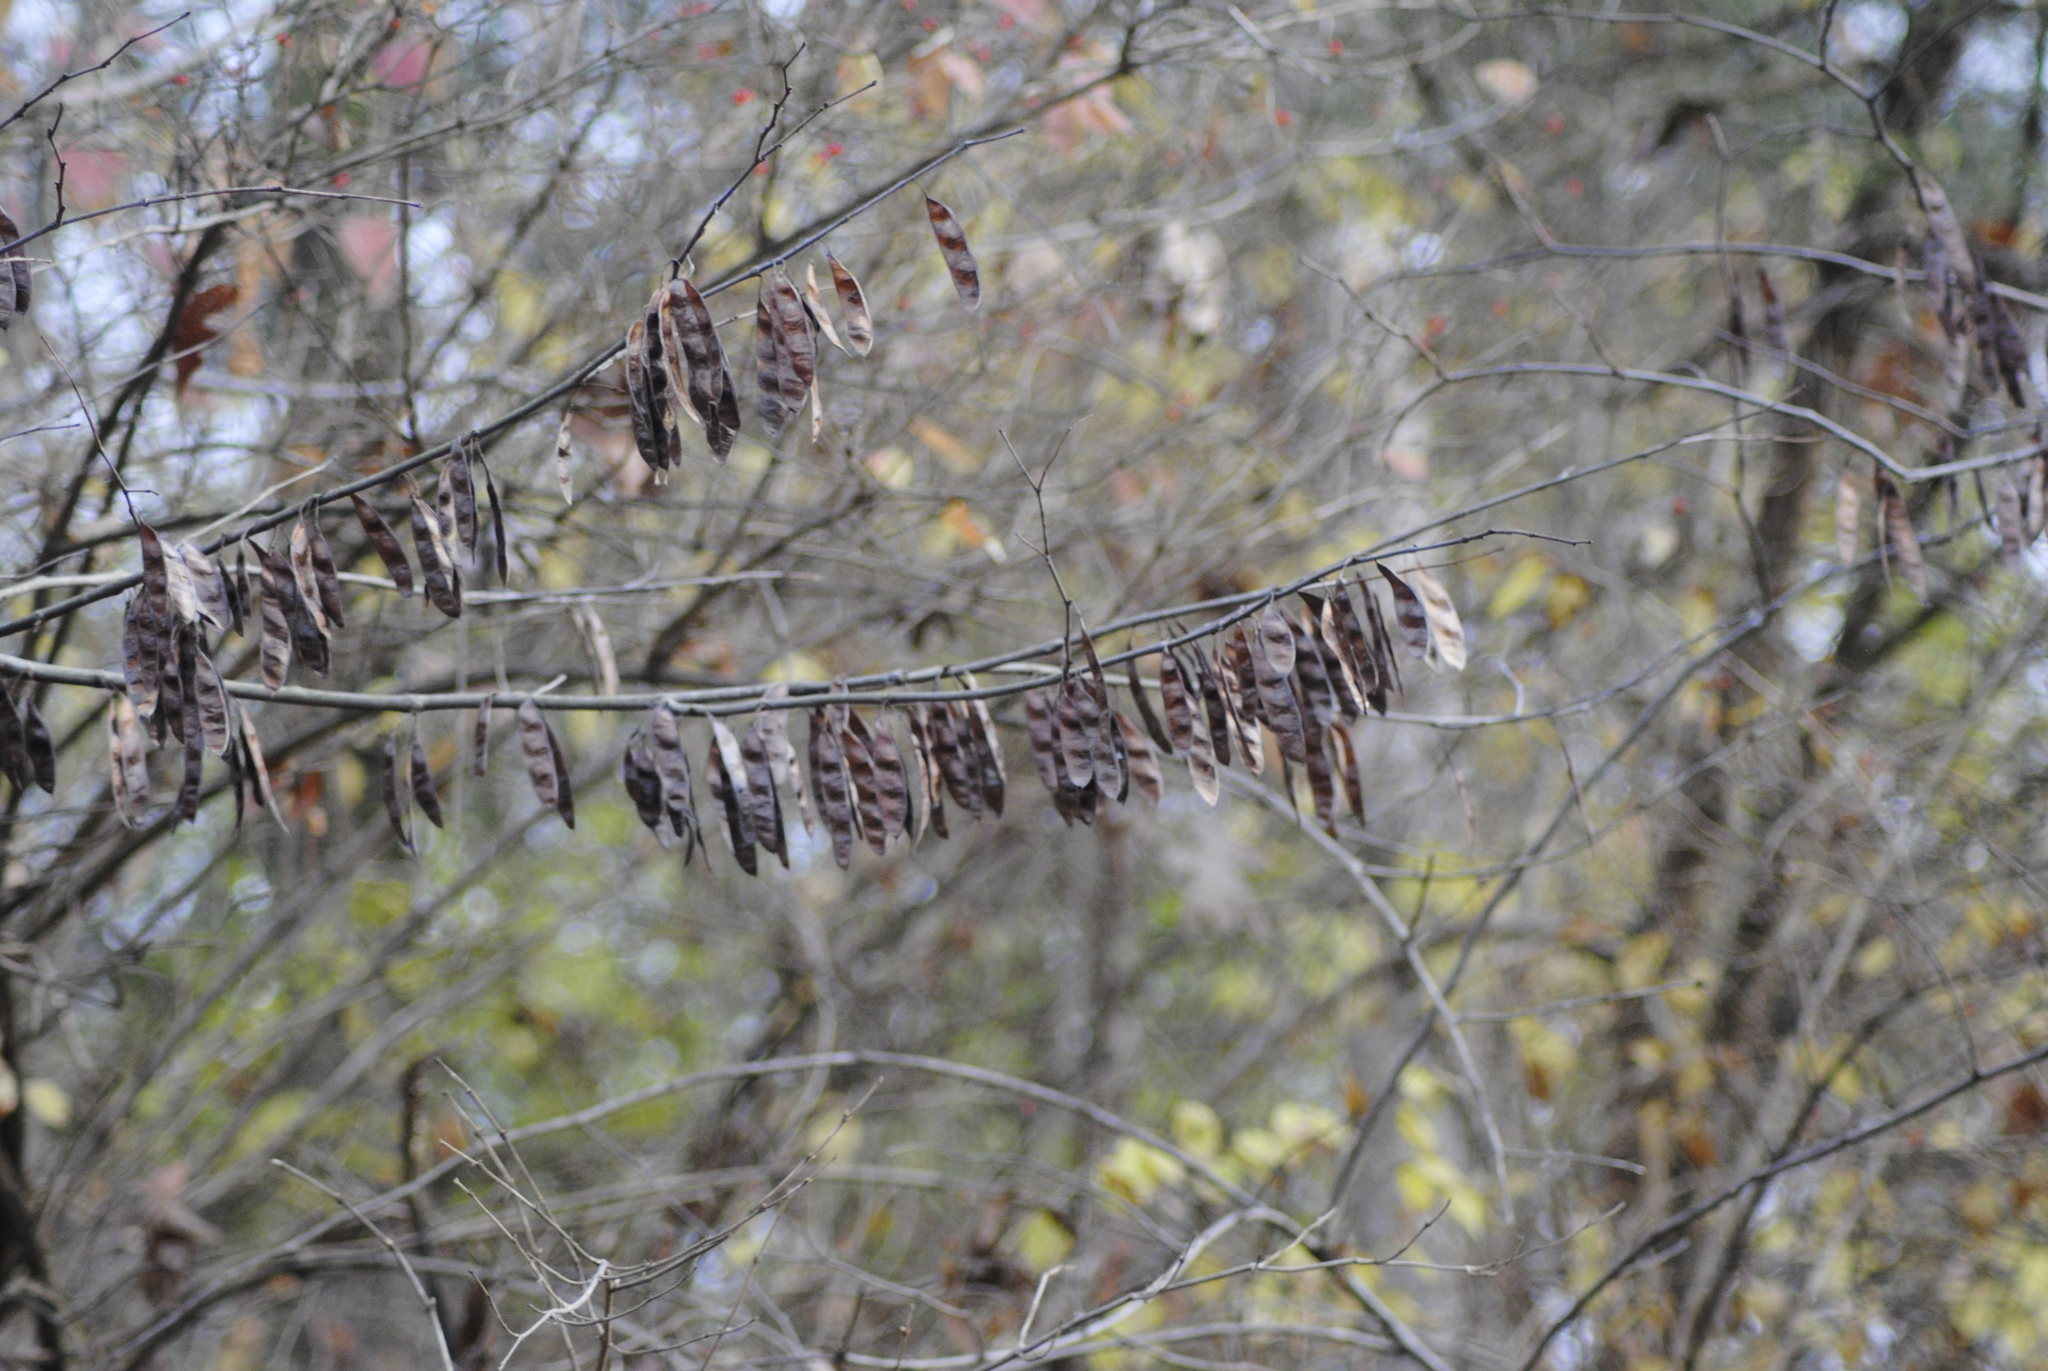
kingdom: Plantae
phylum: Tracheophyta
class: Magnoliopsida
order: Fabales
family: Fabaceae
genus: Cercis
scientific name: Cercis canadensis
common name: Eastern redbud
